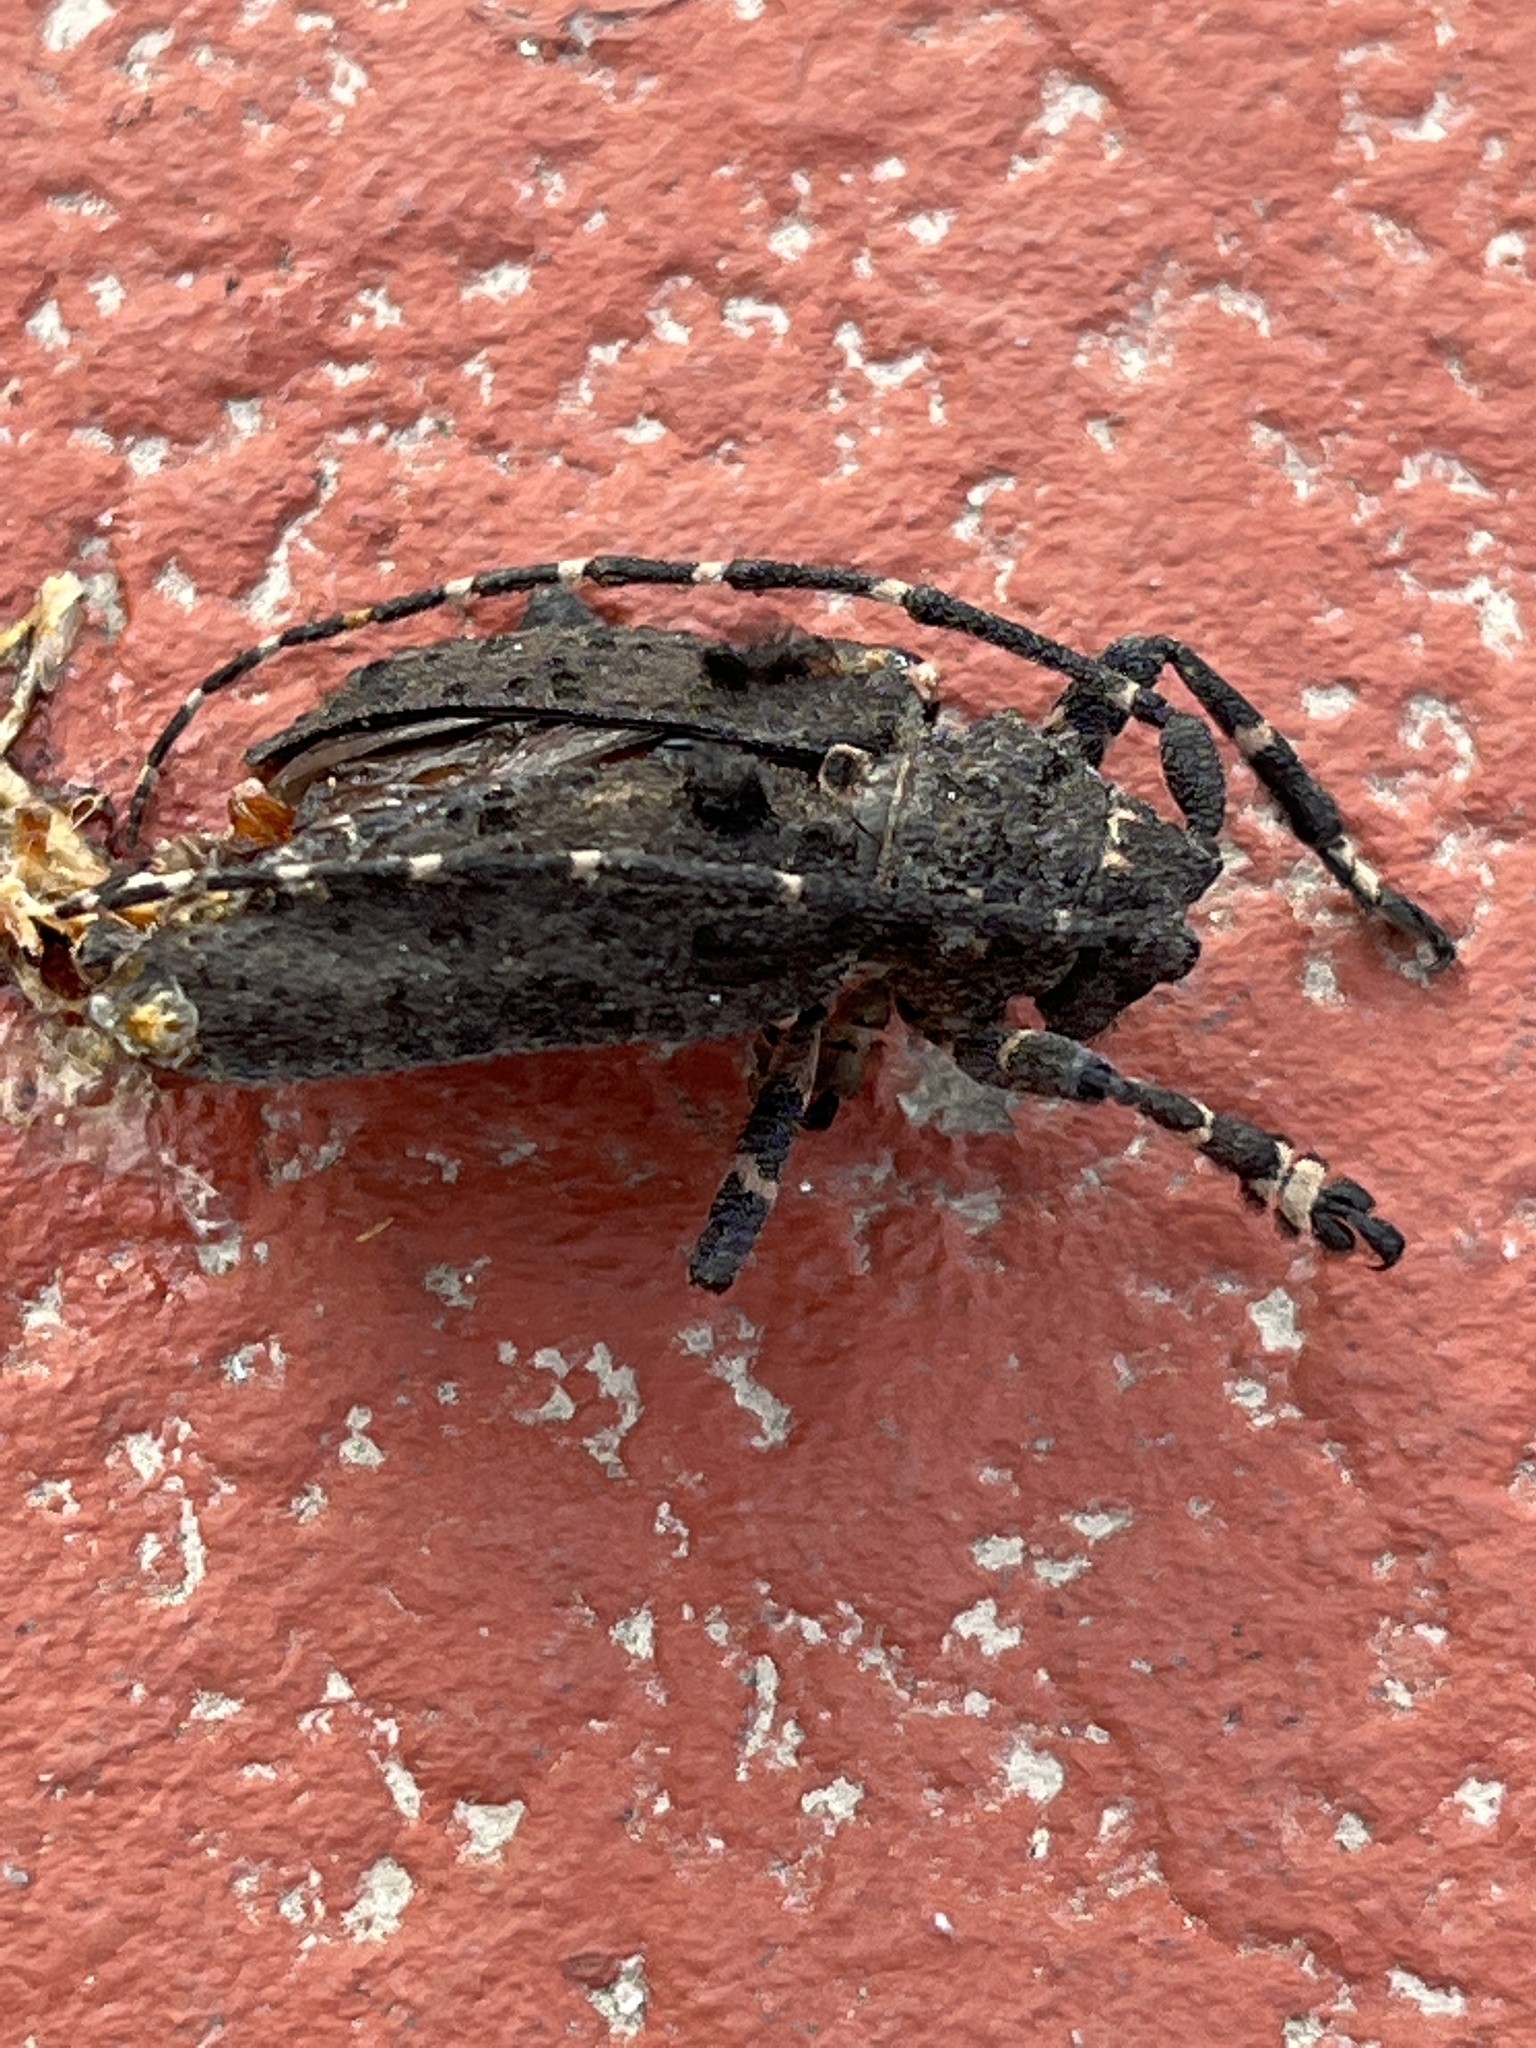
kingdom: Animalia
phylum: Arthropoda
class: Insecta
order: Coleoptera
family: Cerambycidae
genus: Moechotypa
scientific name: Moechotypa diphysis
